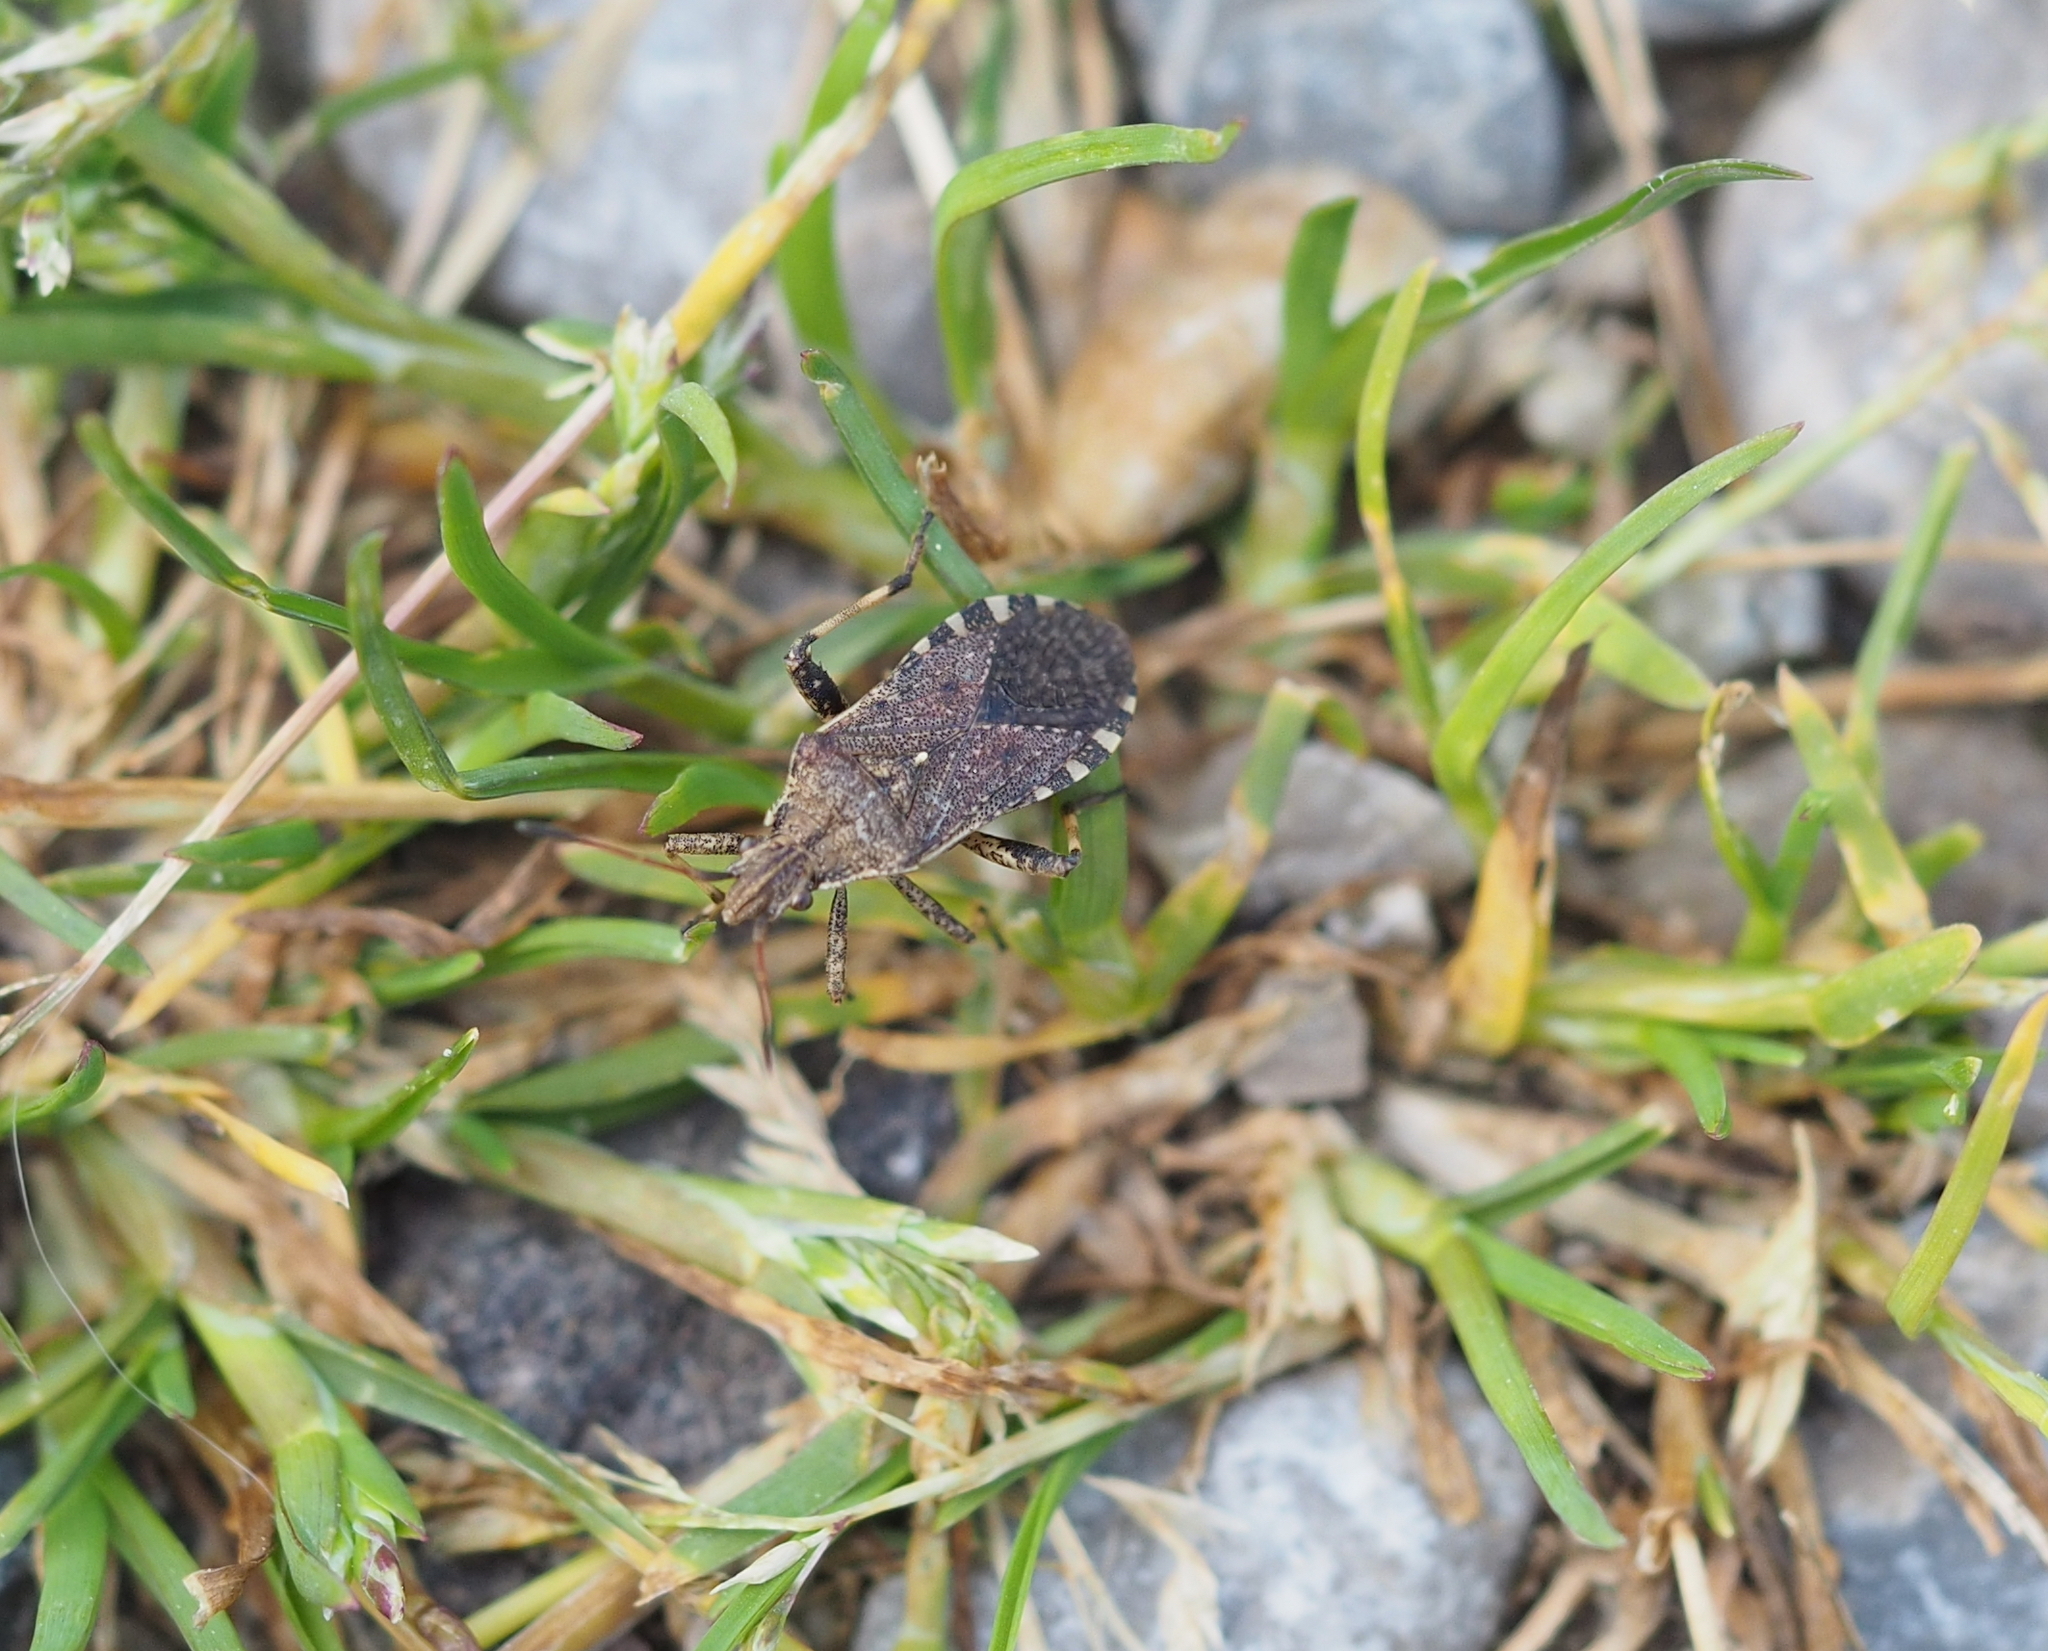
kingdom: Animalia
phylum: Arthropoda
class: Insecta
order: Hemiptera
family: Coreidae
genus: Ceraleptus
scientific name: Ceraleptus gracilicornis
